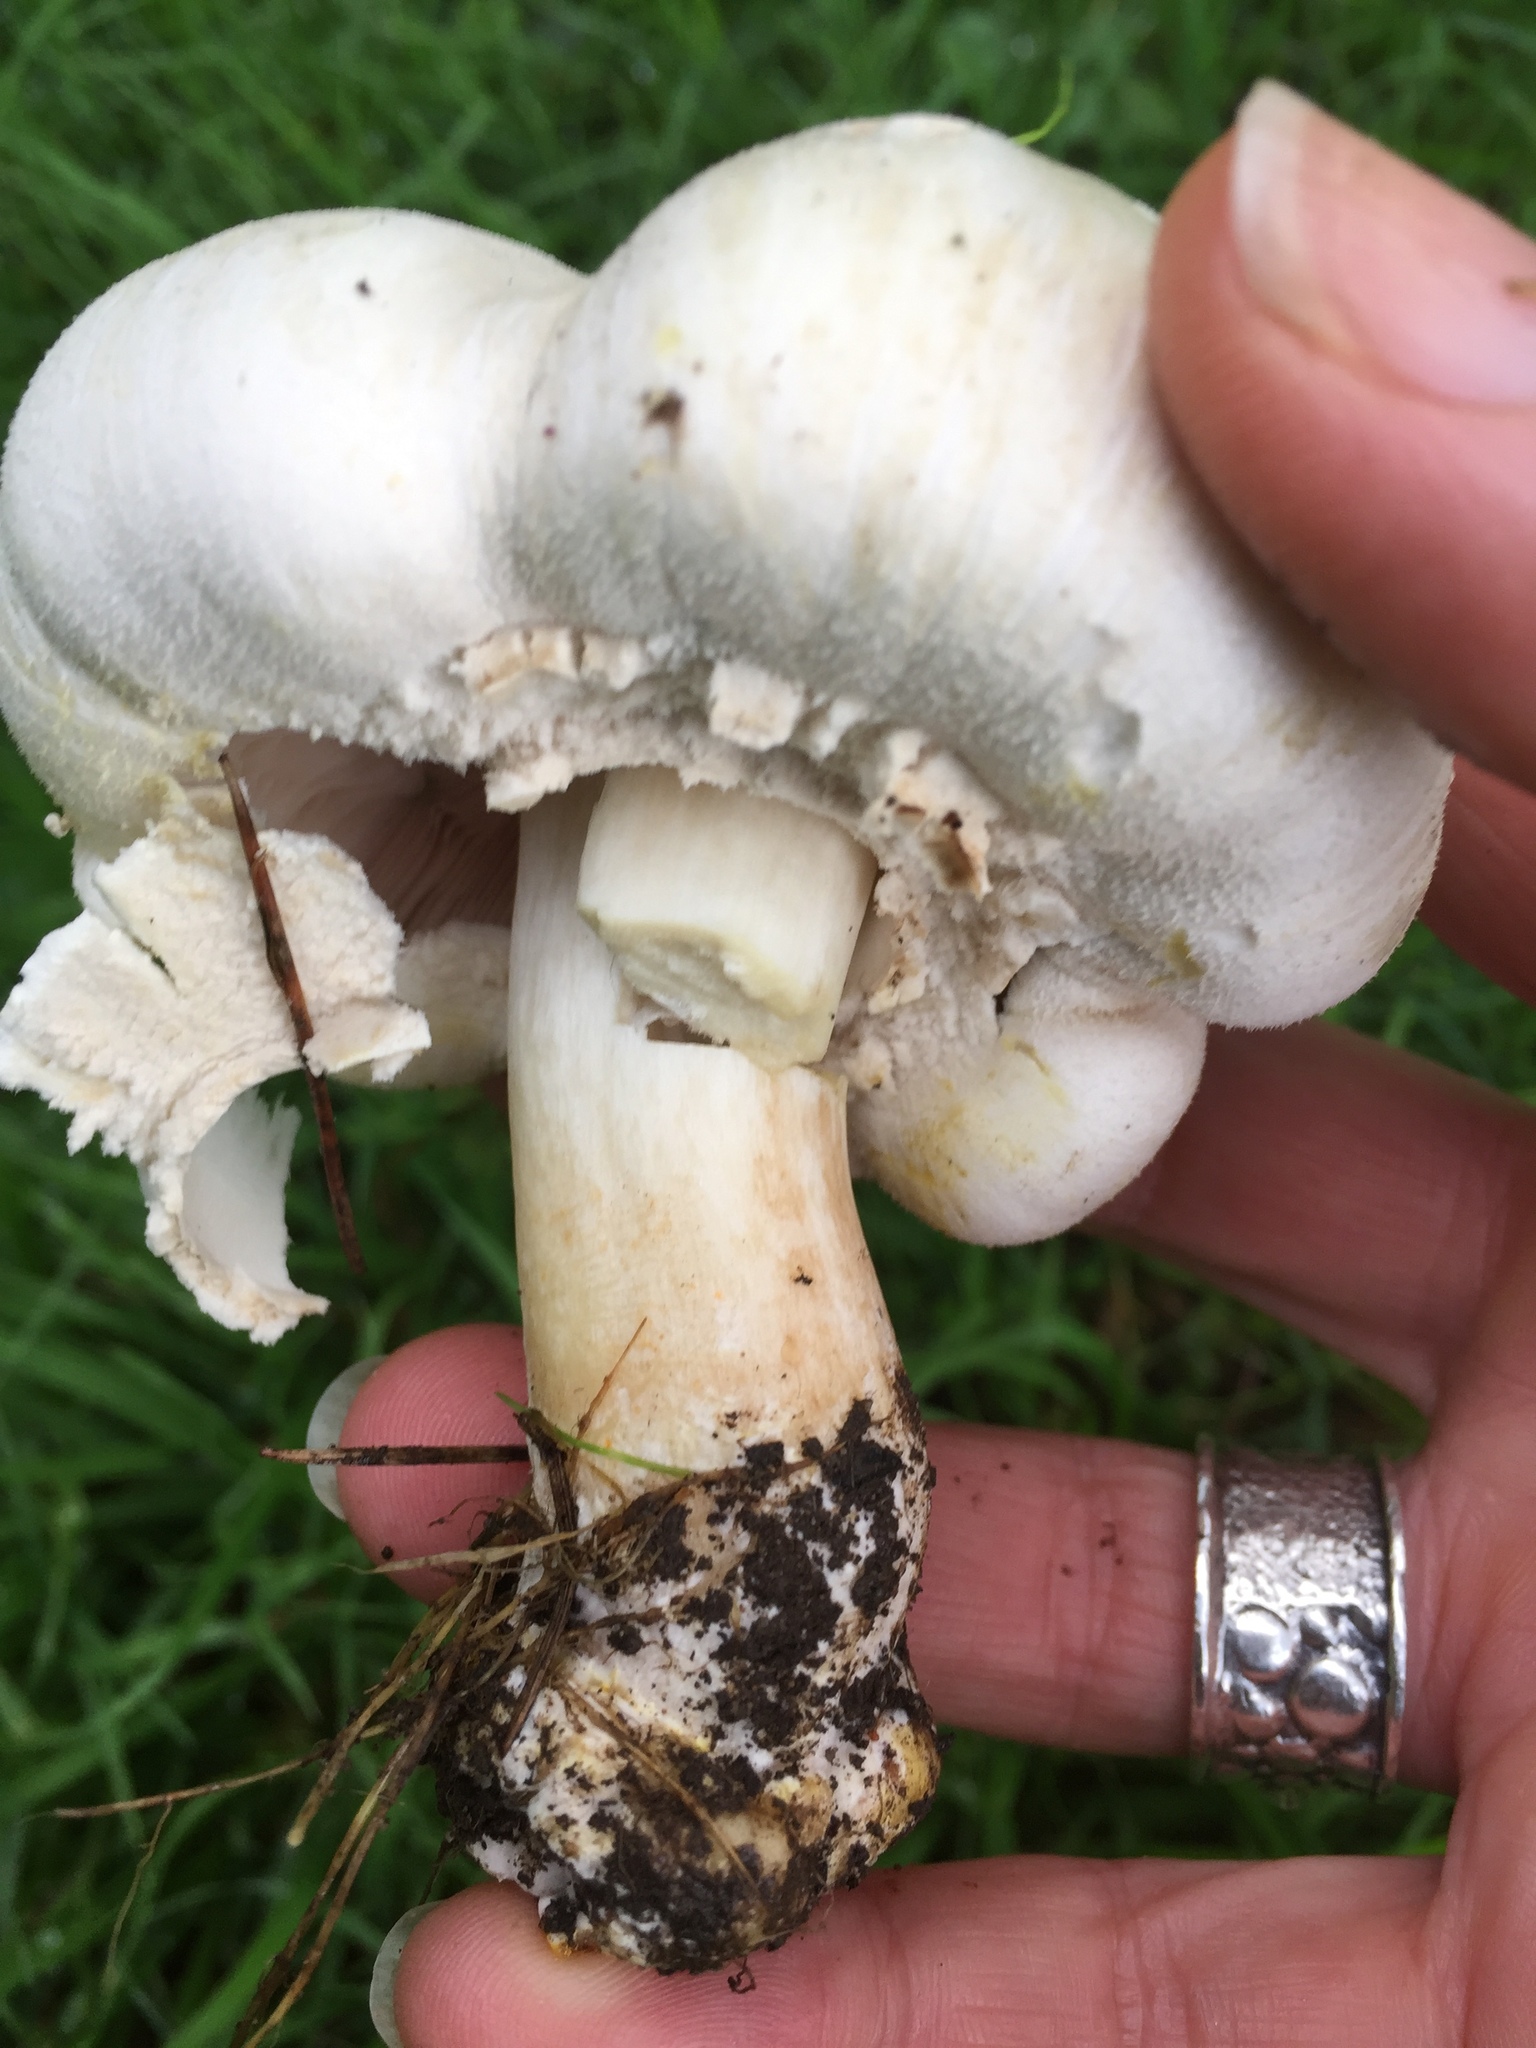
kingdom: Fungi
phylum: Basidiomycota
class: Agaricomycetes
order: Agaricales
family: Agaricaceae
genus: Agaricus
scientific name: Agaricus xanthodermus
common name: Yellow stainer
